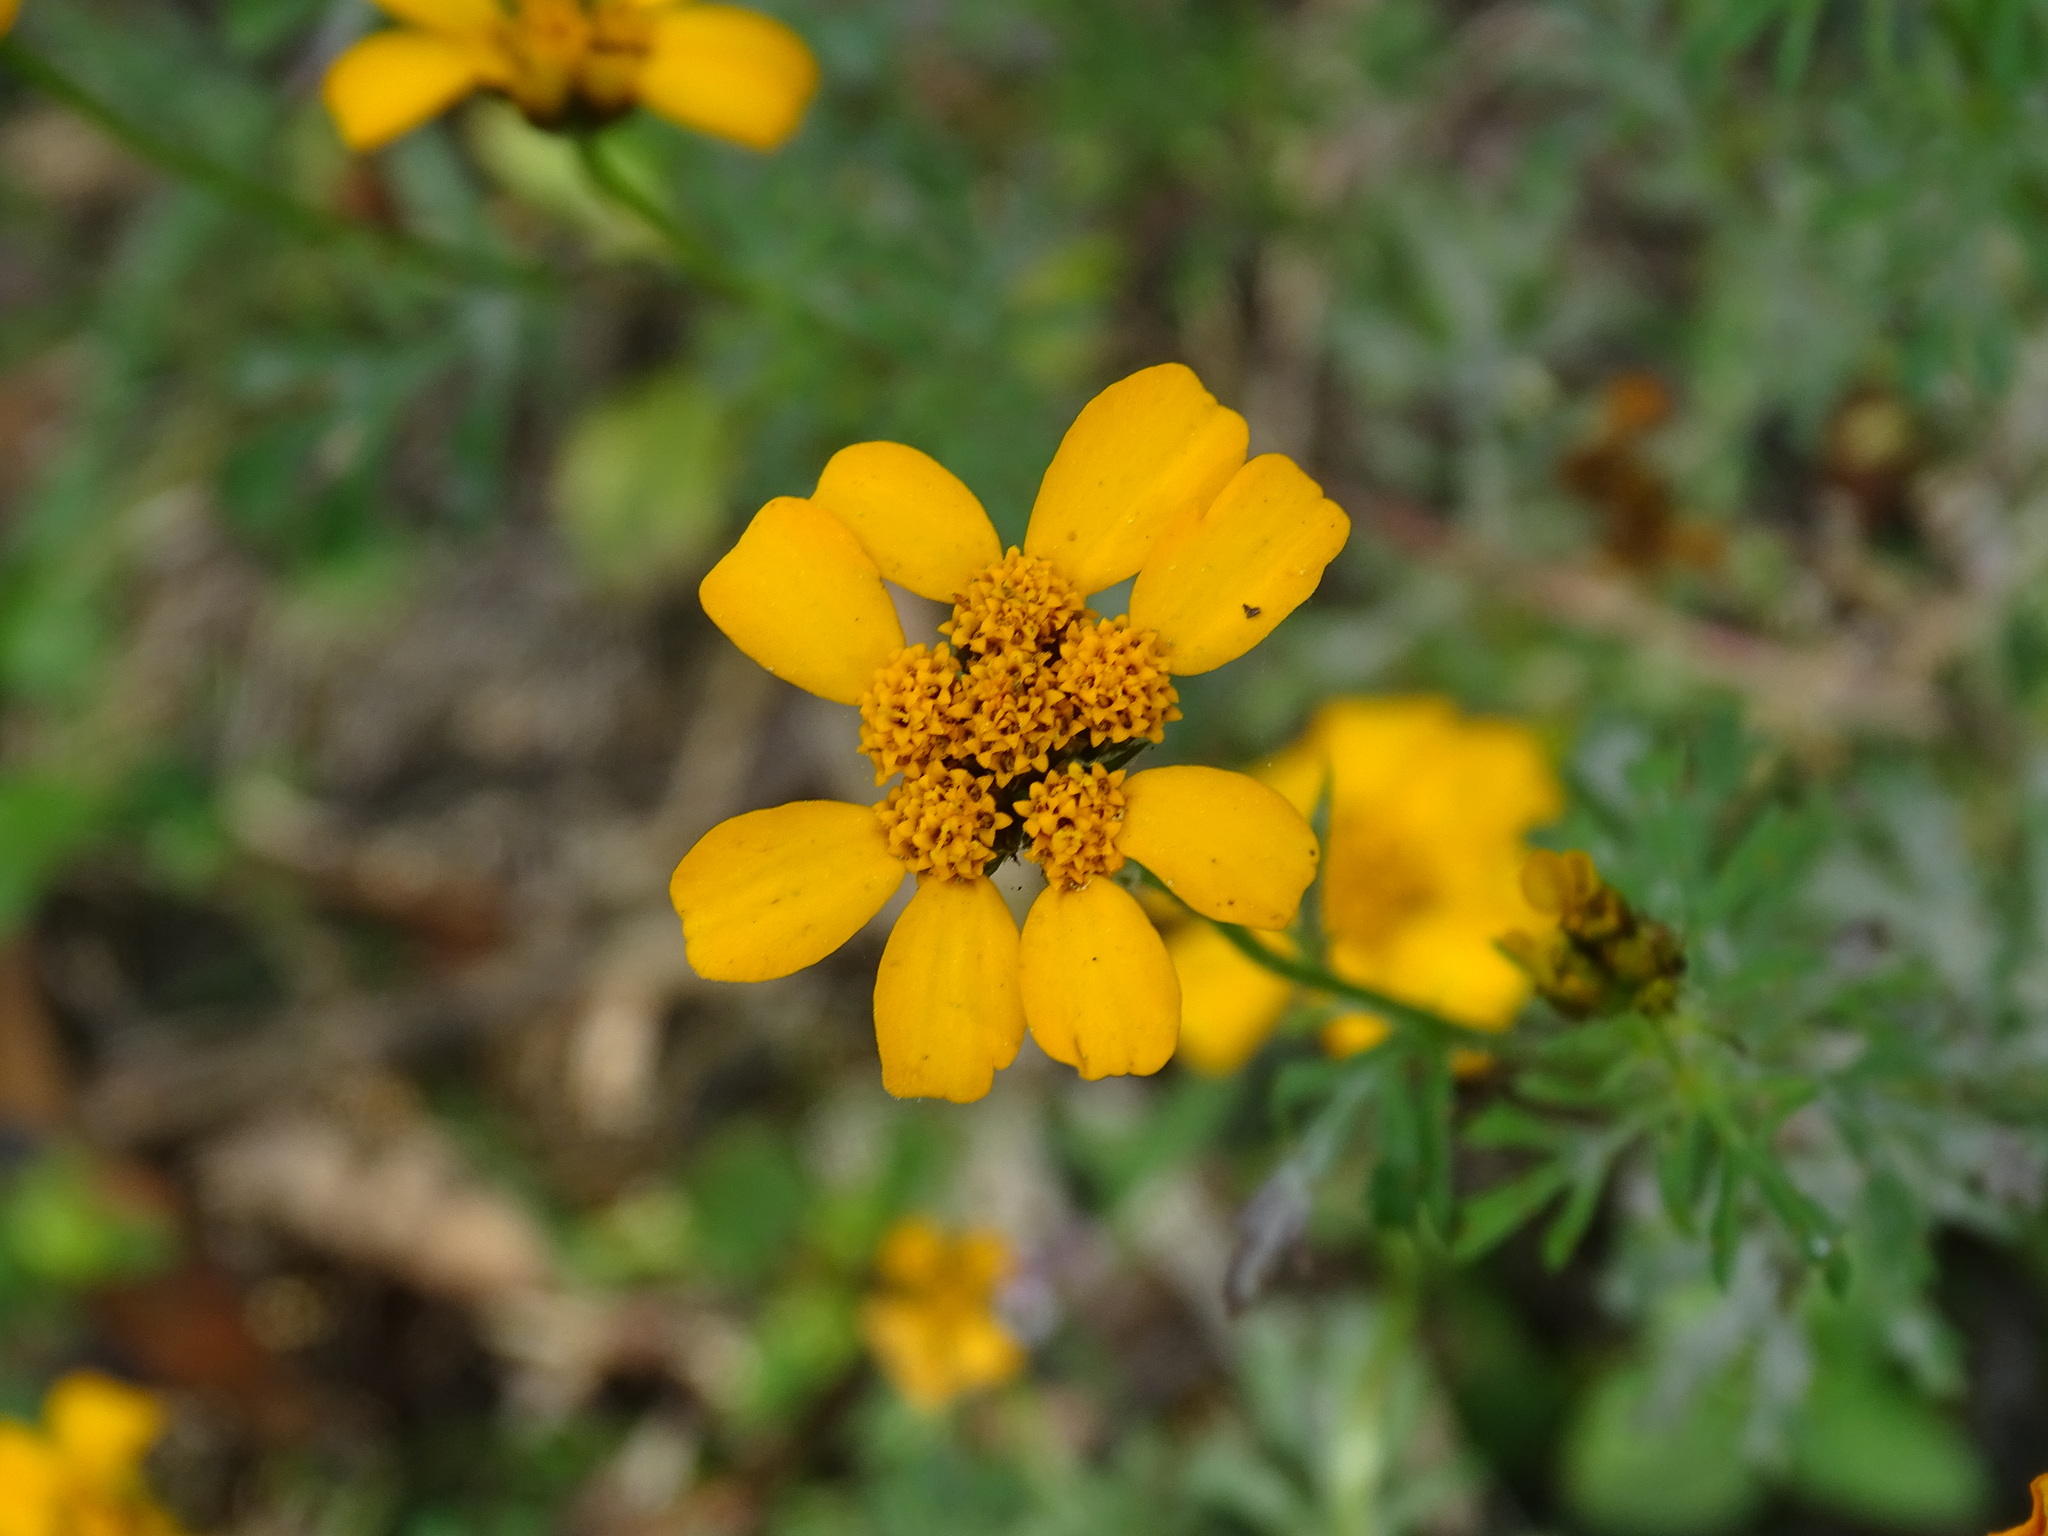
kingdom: Plantae
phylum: Tracheophyta
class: Magnoliopsida
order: Asterales
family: Asteraceae
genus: Dyssodia
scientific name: Dyssodia decipiens
